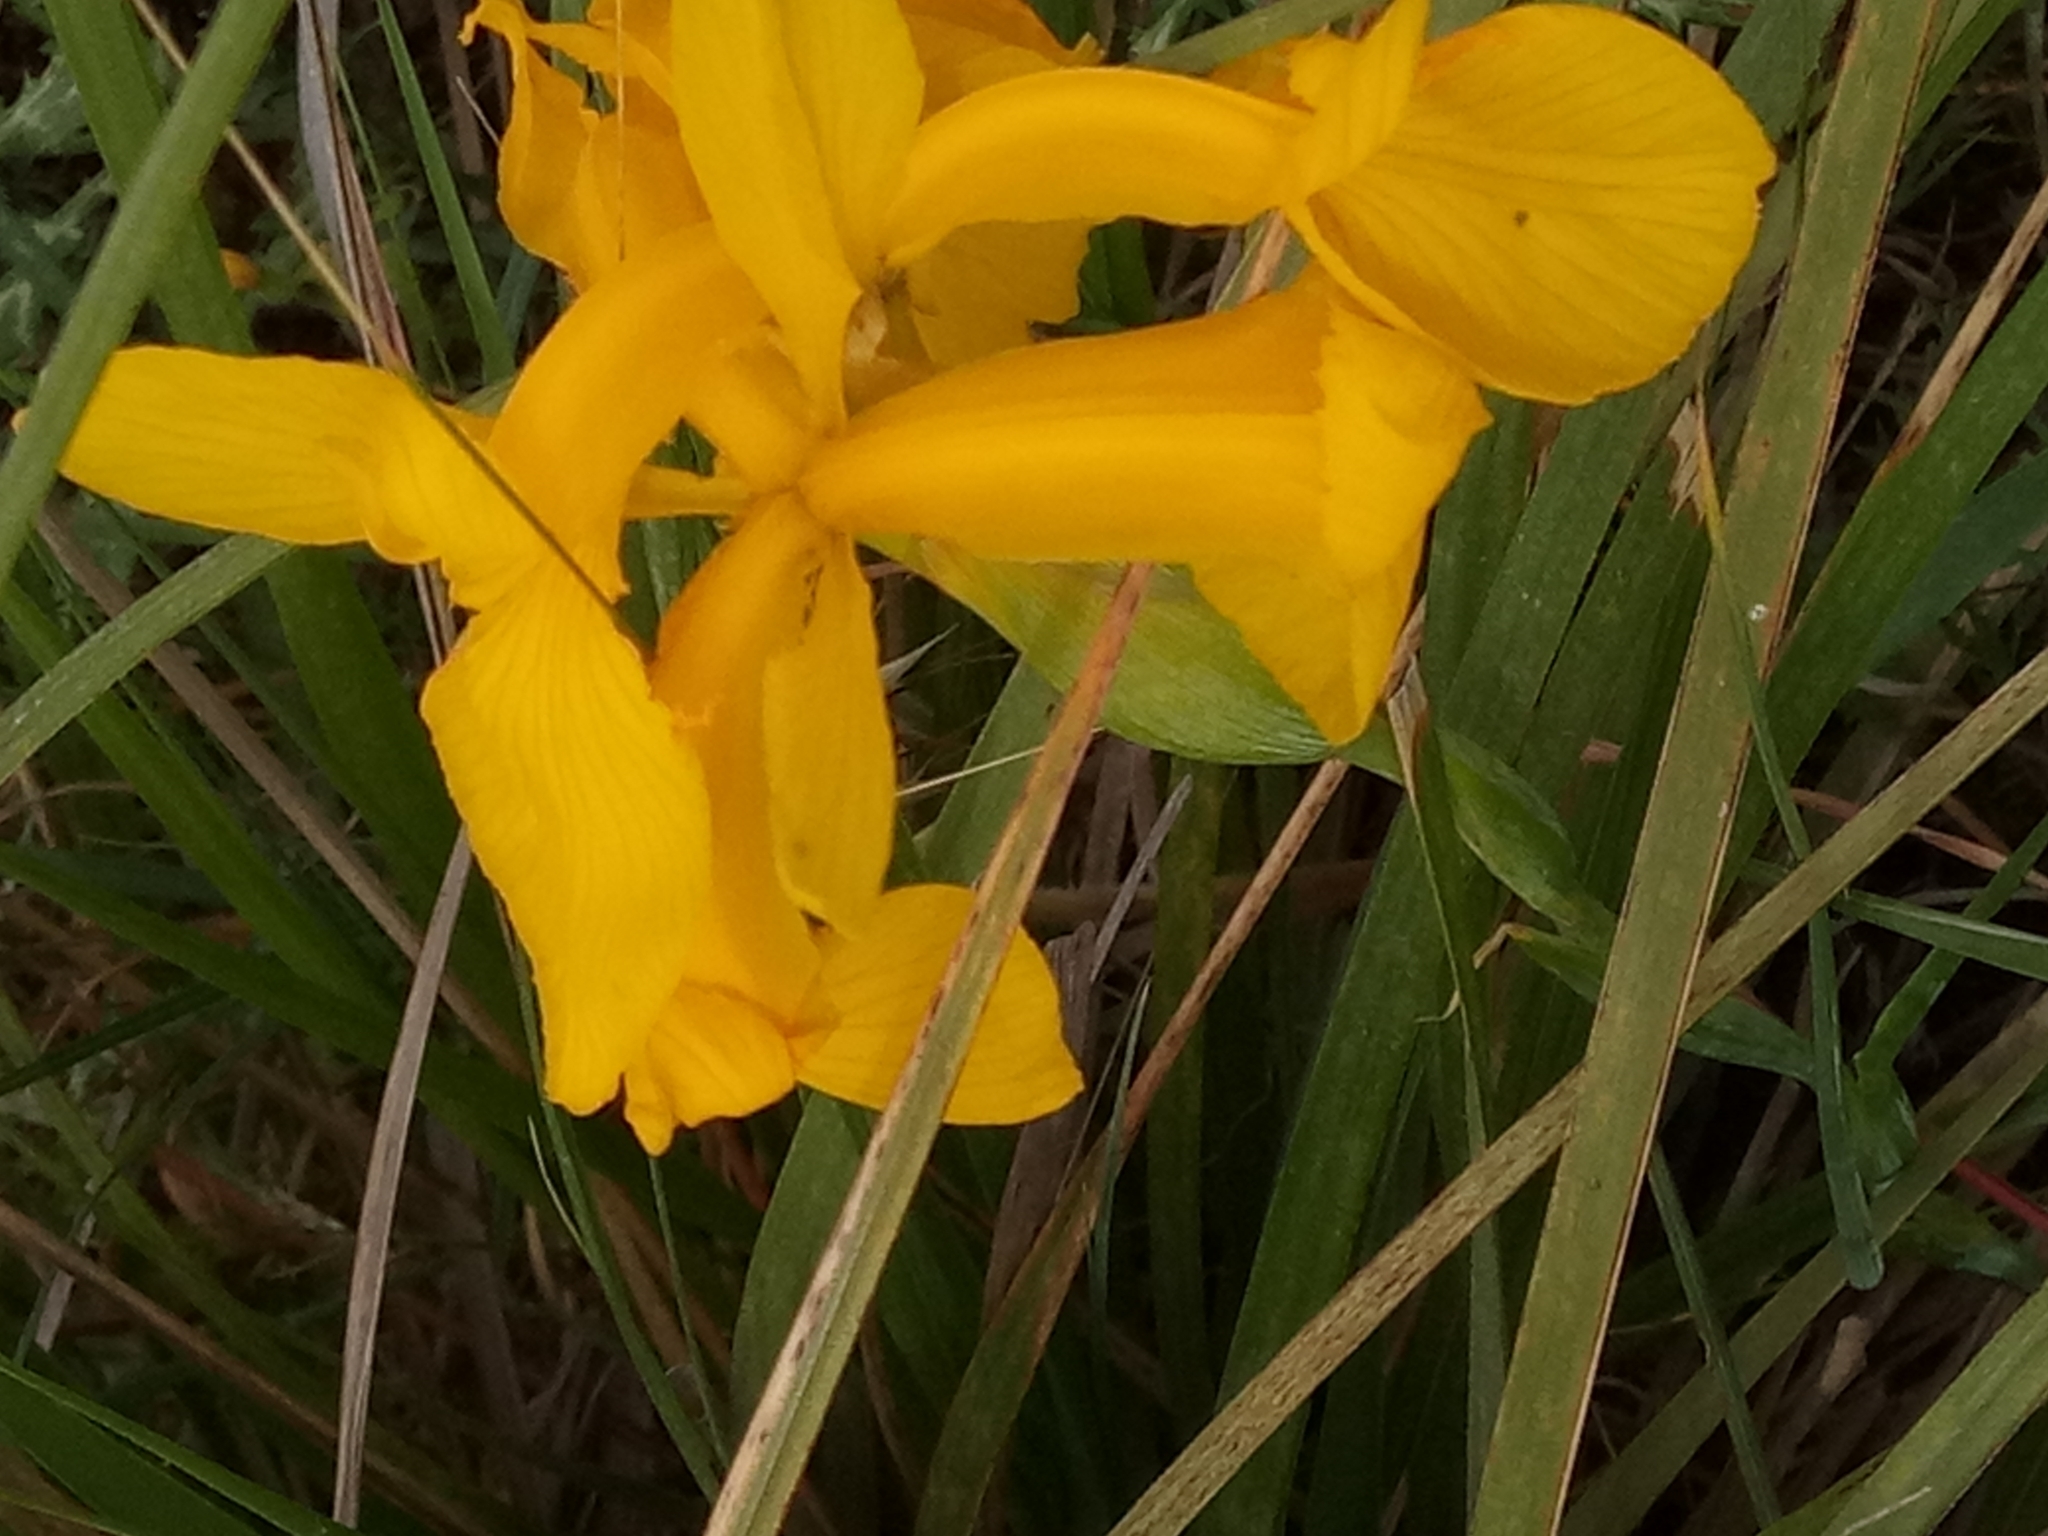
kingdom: Plantae
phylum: Tracheophyta
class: Liliopsida
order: Asparagales
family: Iridaceae
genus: Iris
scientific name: Iris juncea
